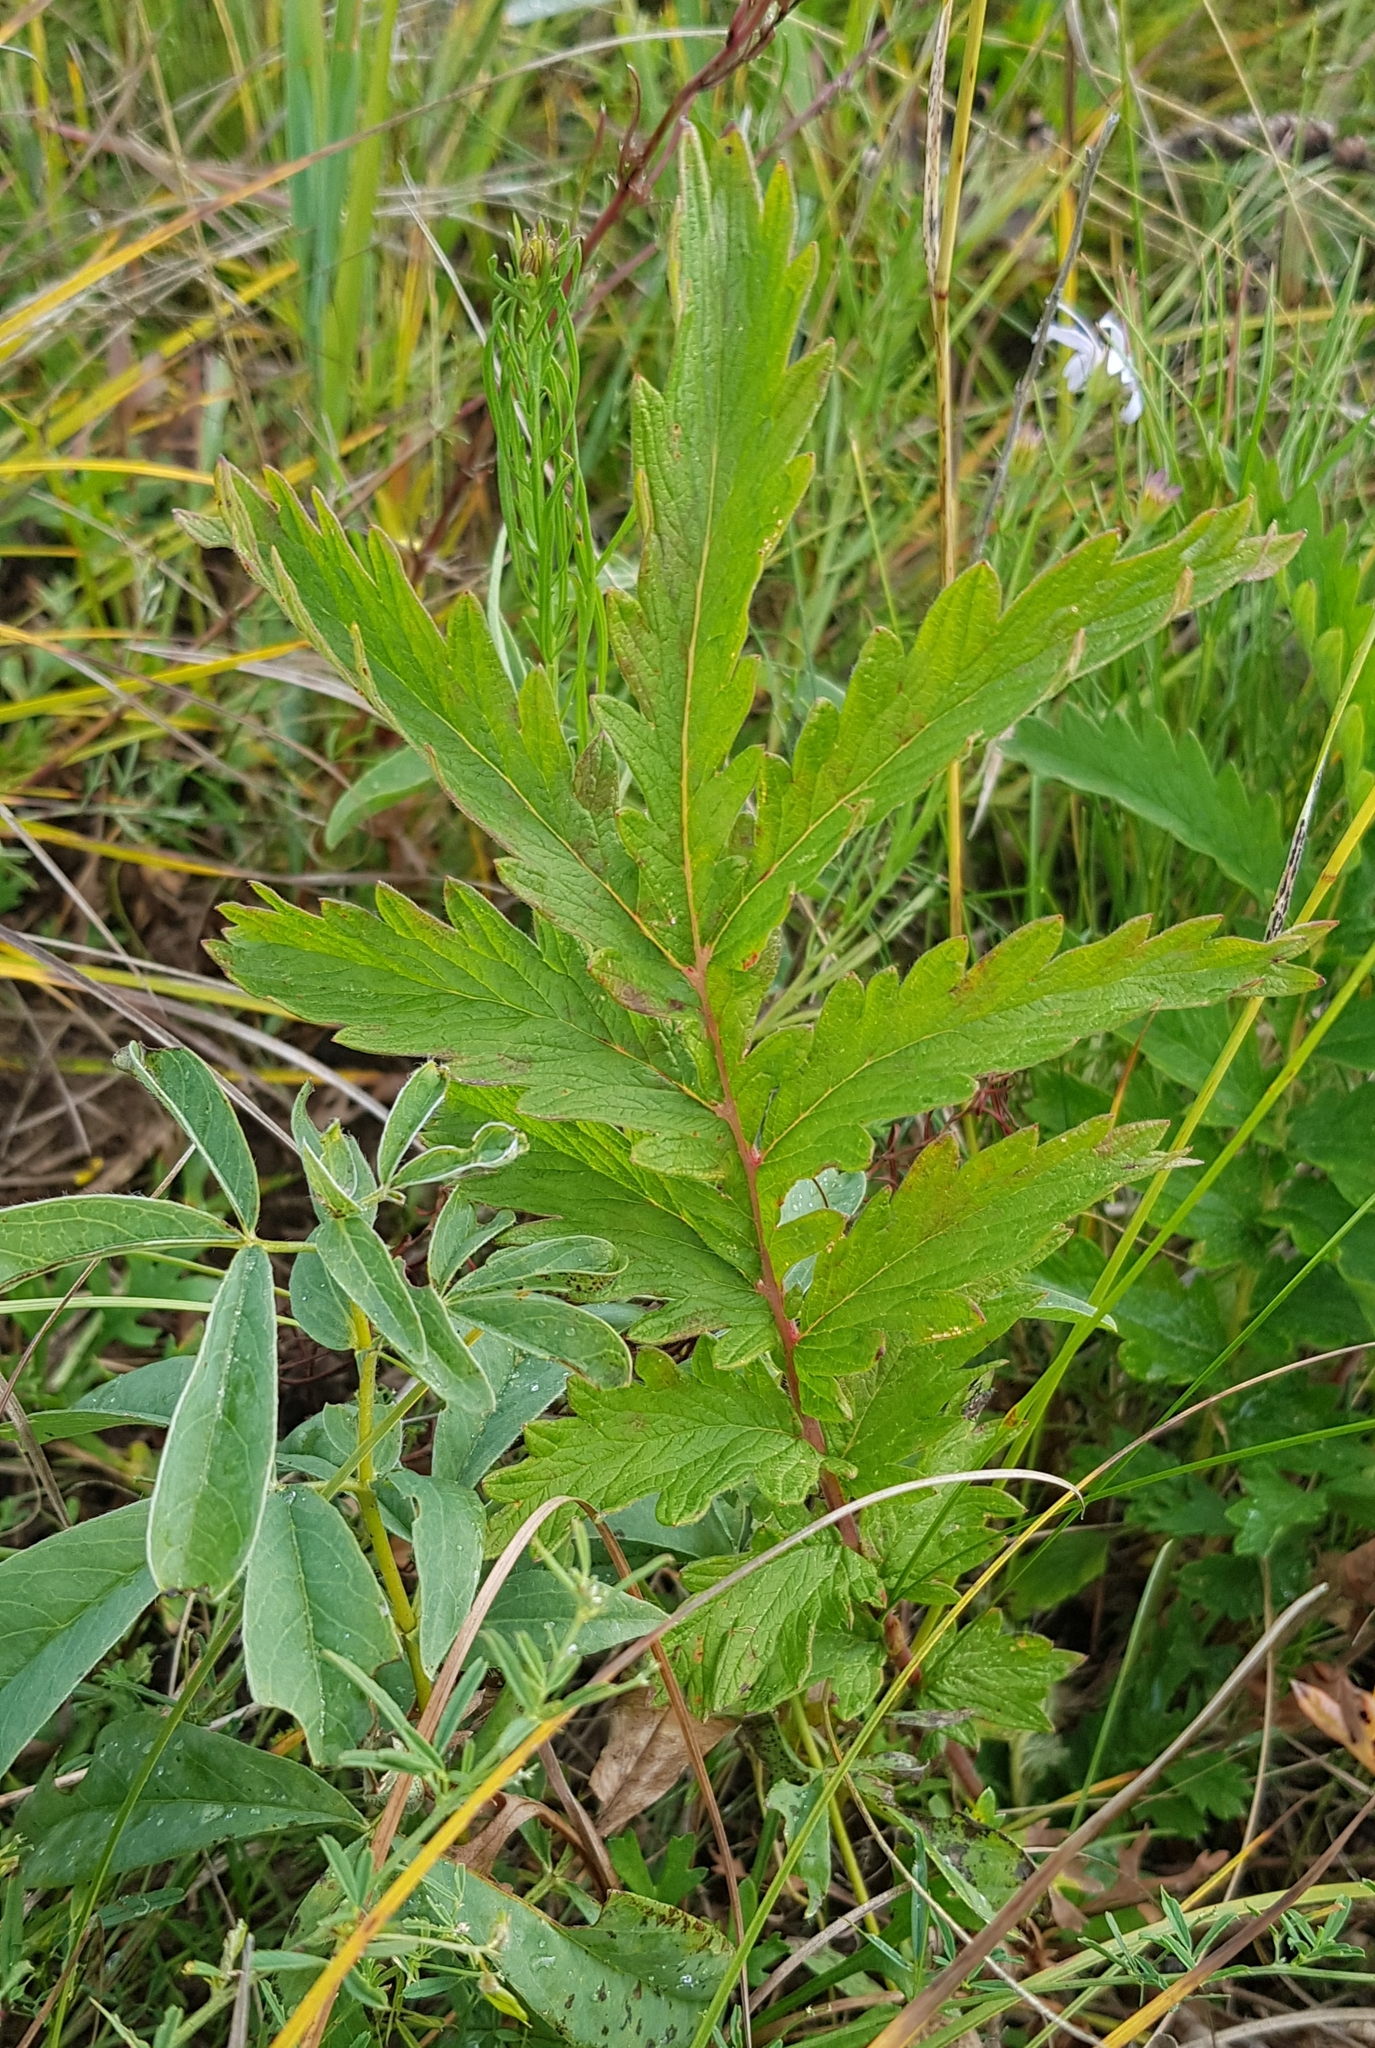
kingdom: Plantae
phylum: Tracheophyta
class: Magnoliopsida
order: Rosales
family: Rosaceae
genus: Potentilla
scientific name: Potentilla longifolia
